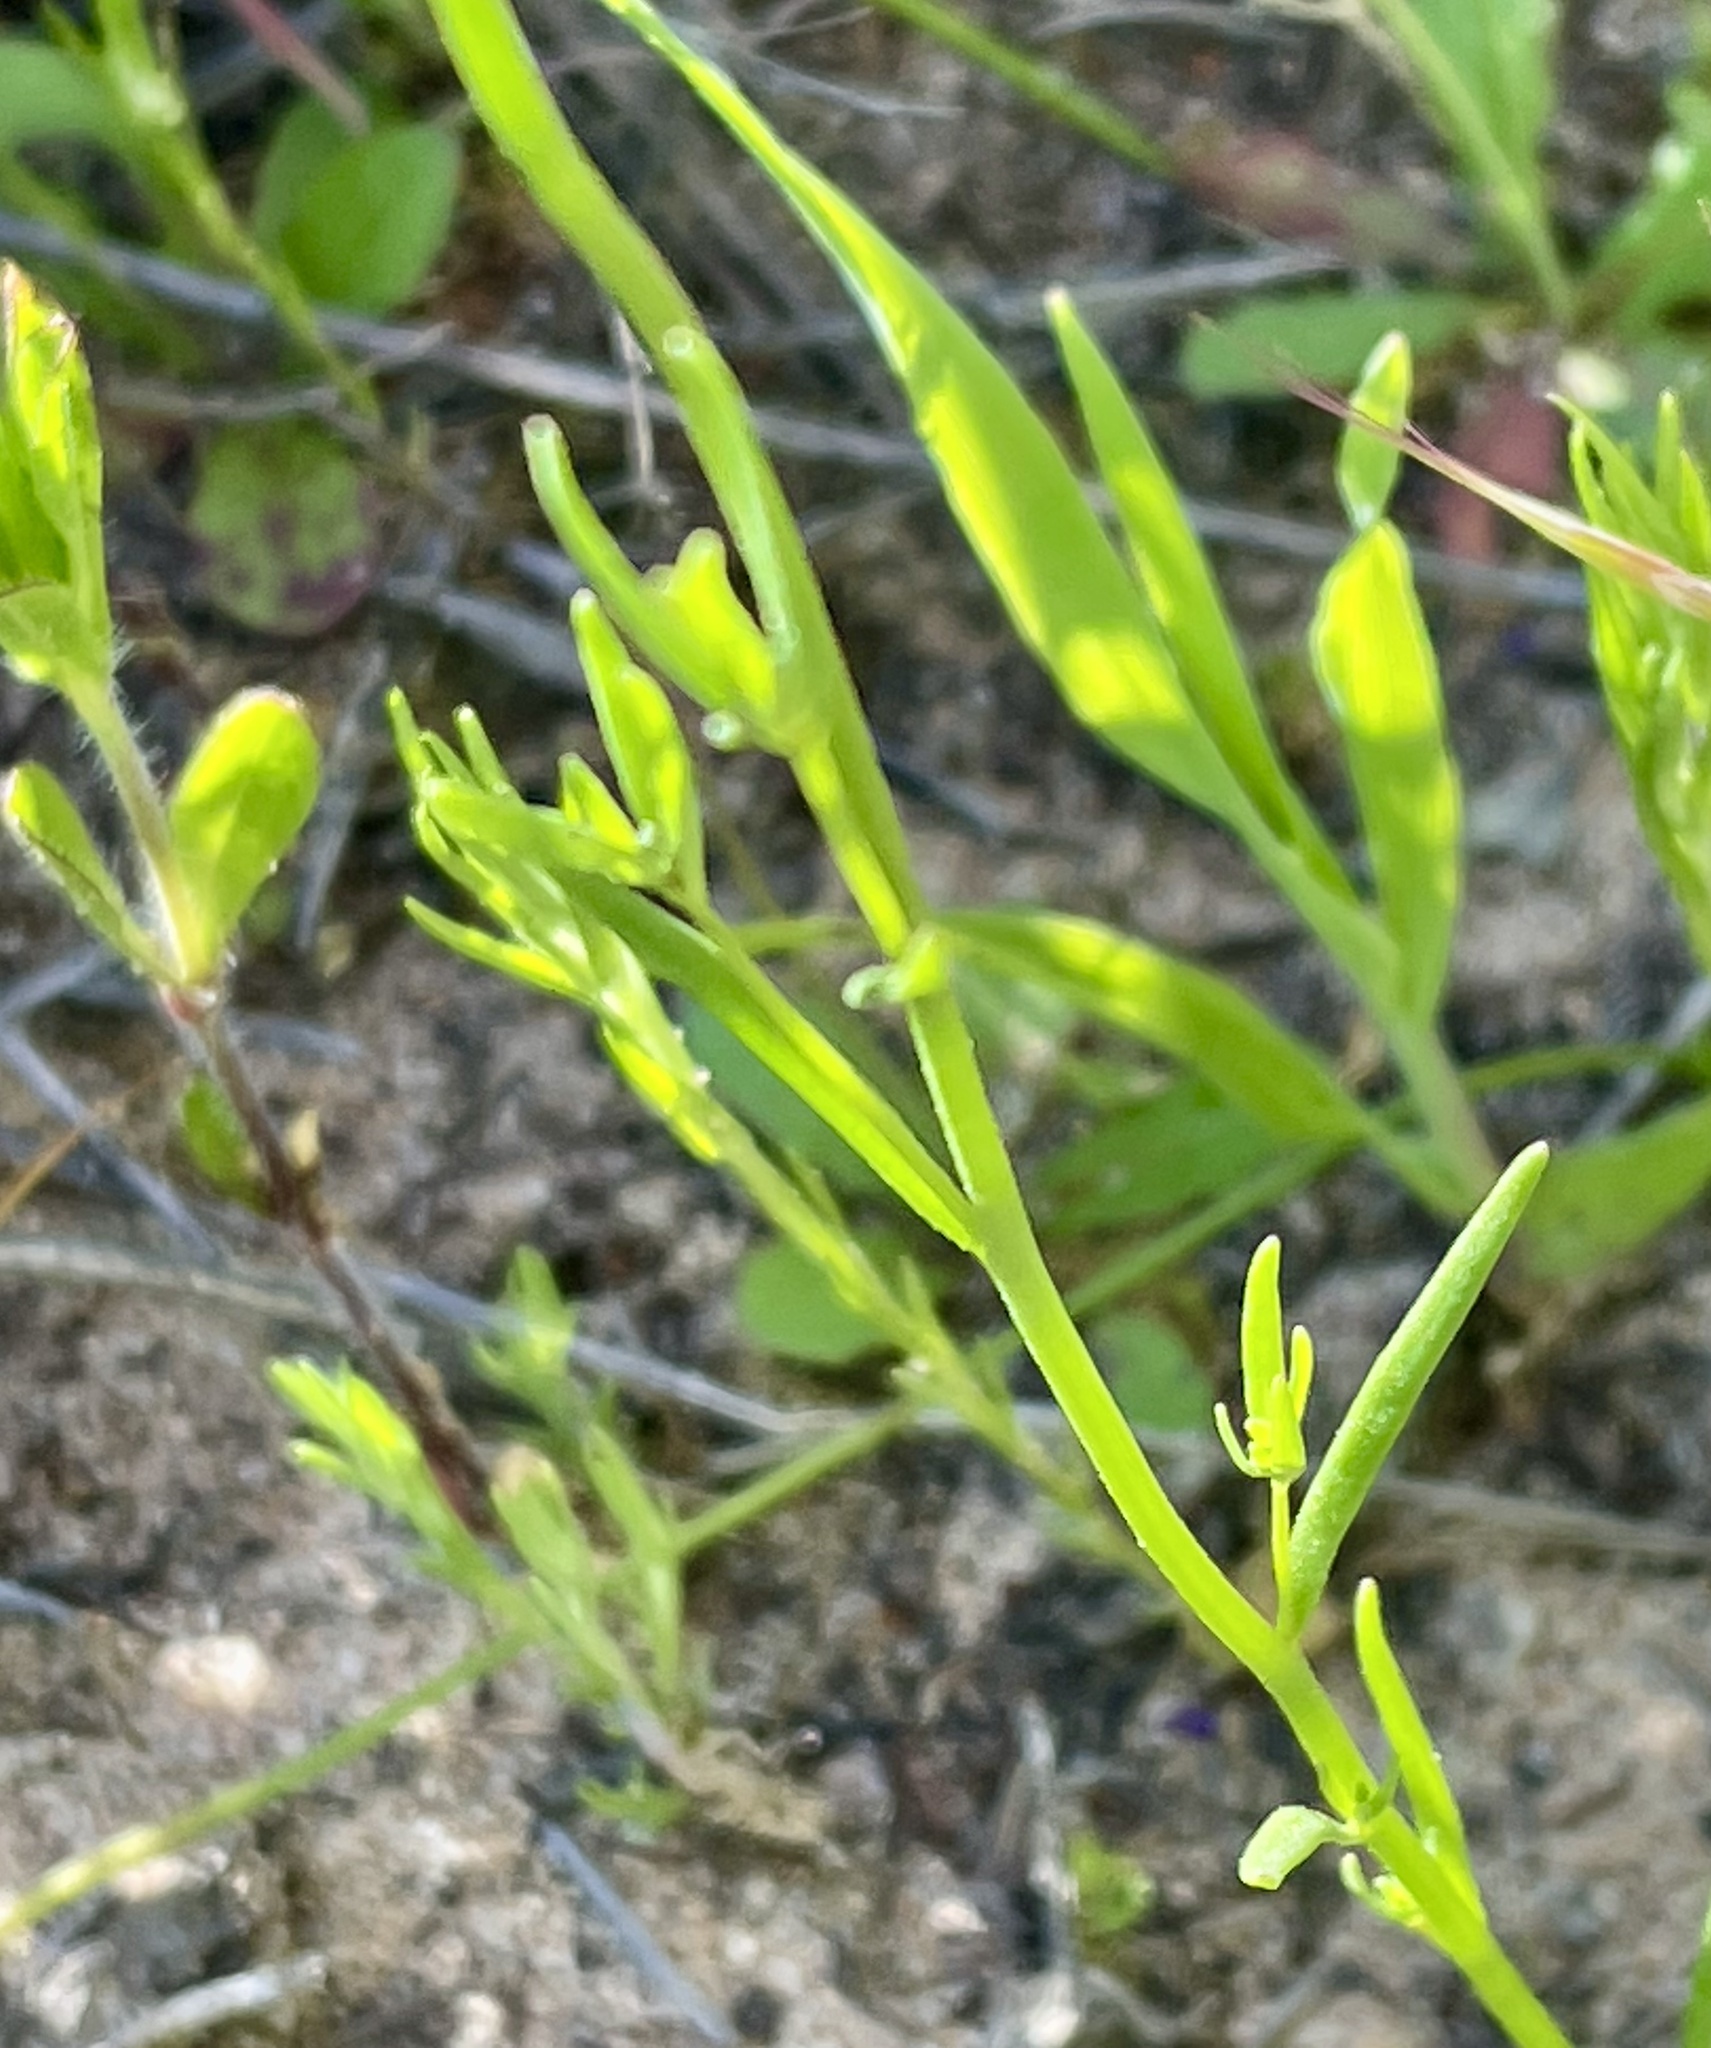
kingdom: Plantae
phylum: Tracheophyta
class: Magnoliopsida
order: Lamiales
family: Plantaginaceae
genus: Nuttallanthus
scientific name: Nuttallanthus texanus
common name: Texas toadflax
